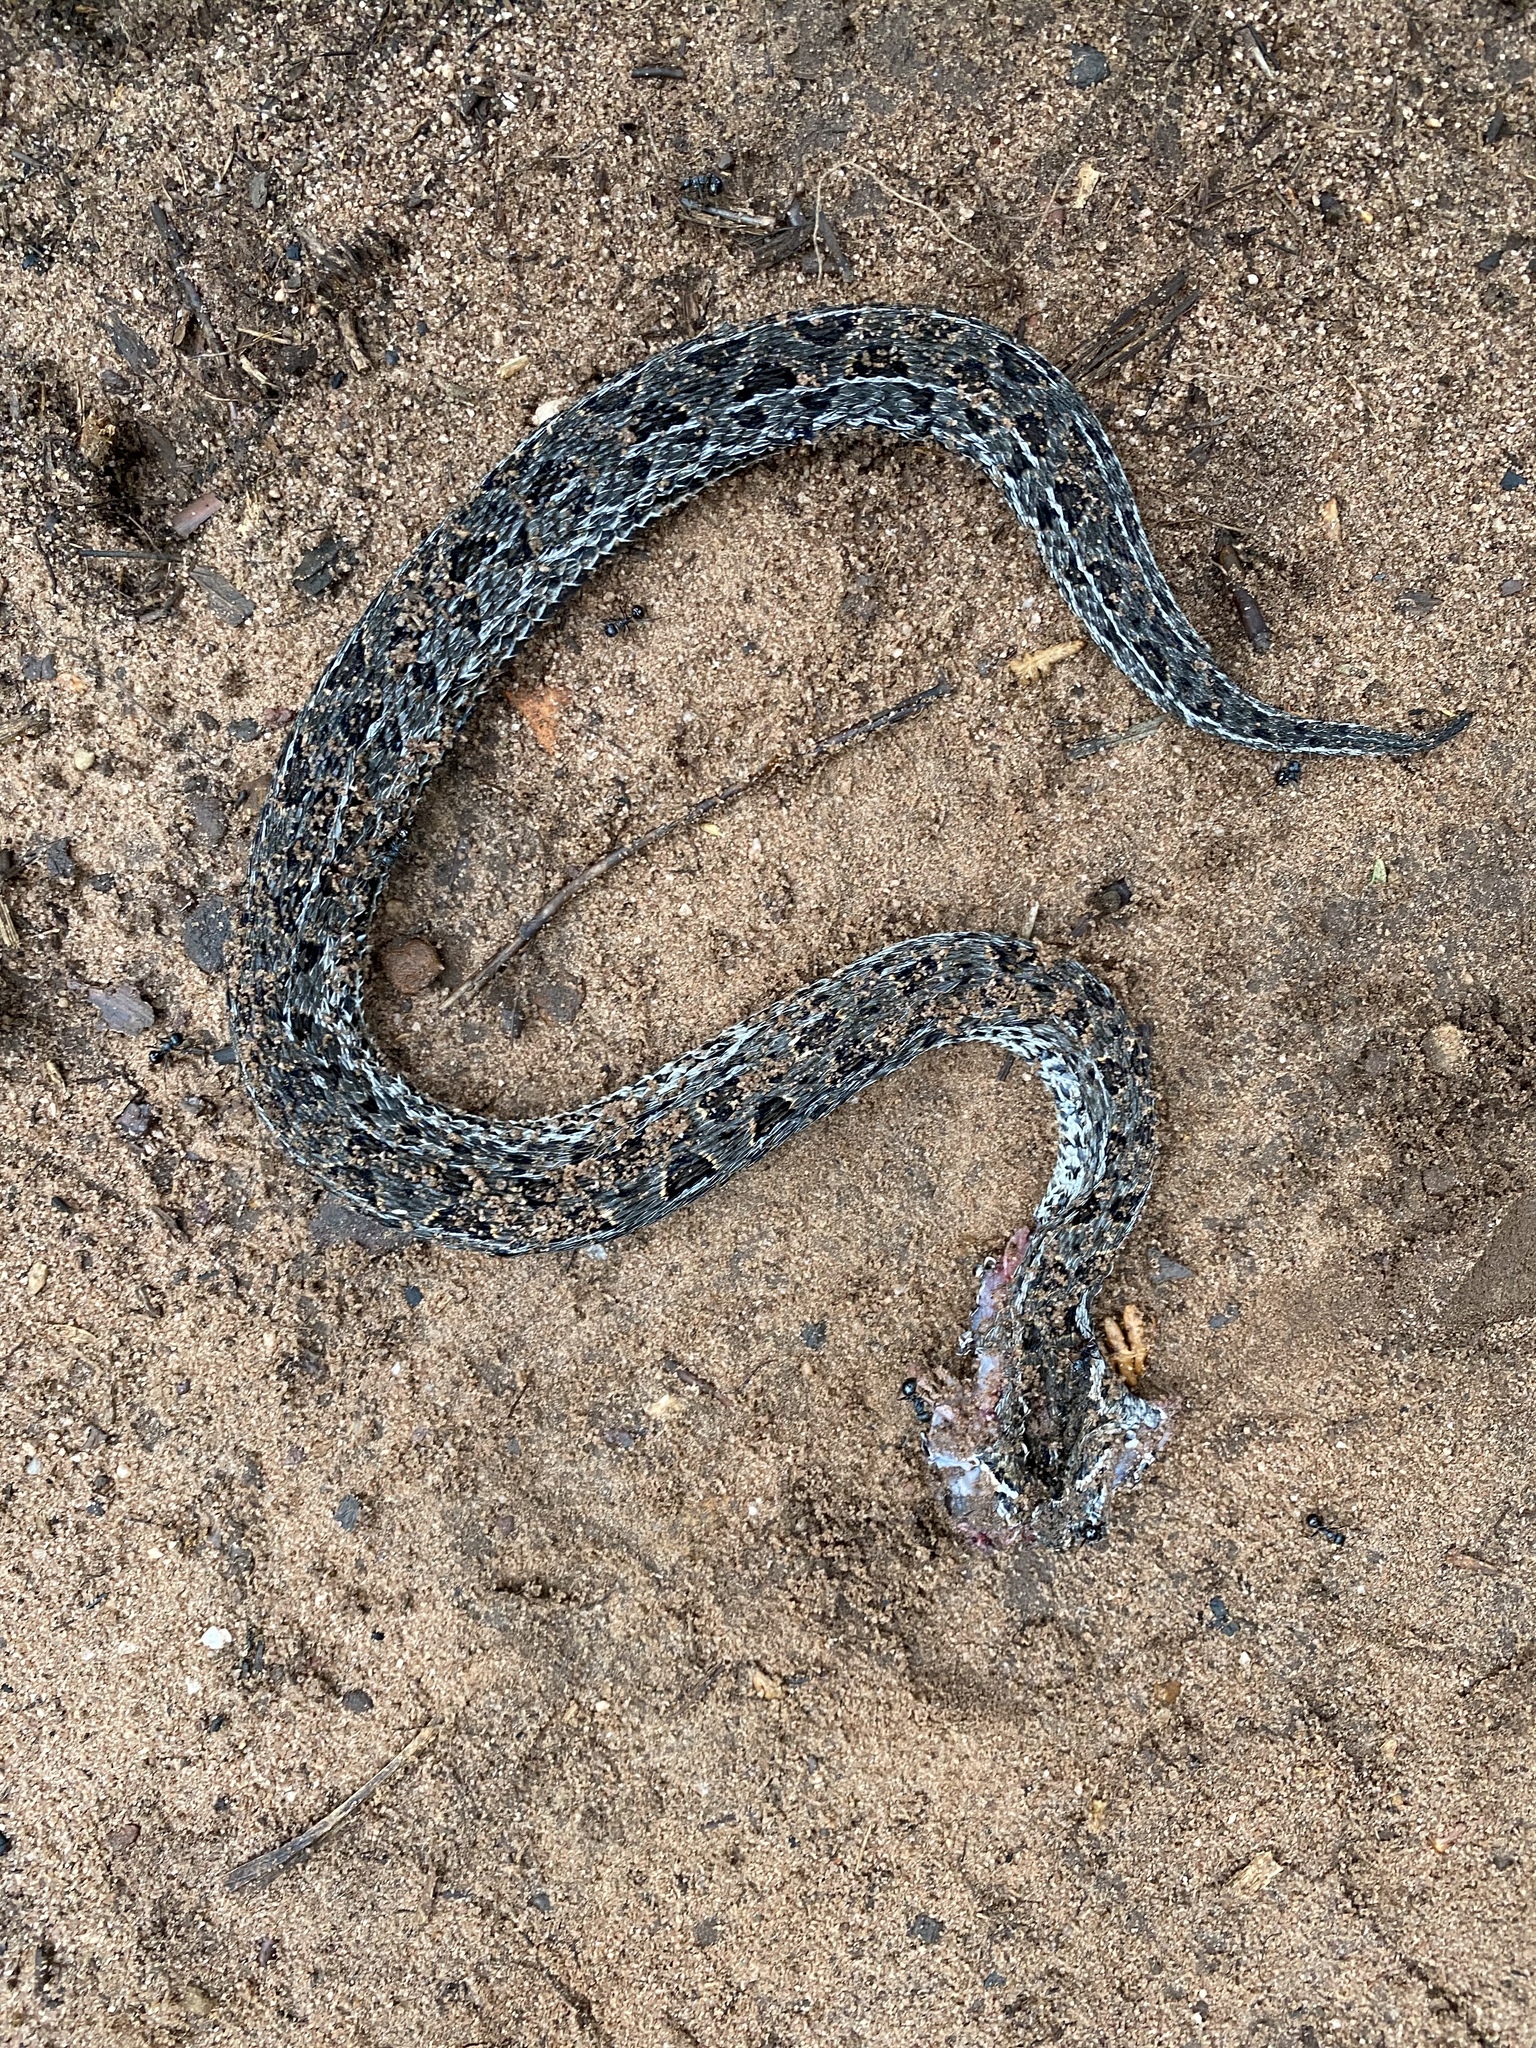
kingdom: Animalia
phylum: Chordata
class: Squamata
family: Viperidae
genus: Bitis
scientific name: Bitis atropos
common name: Mountain adder
